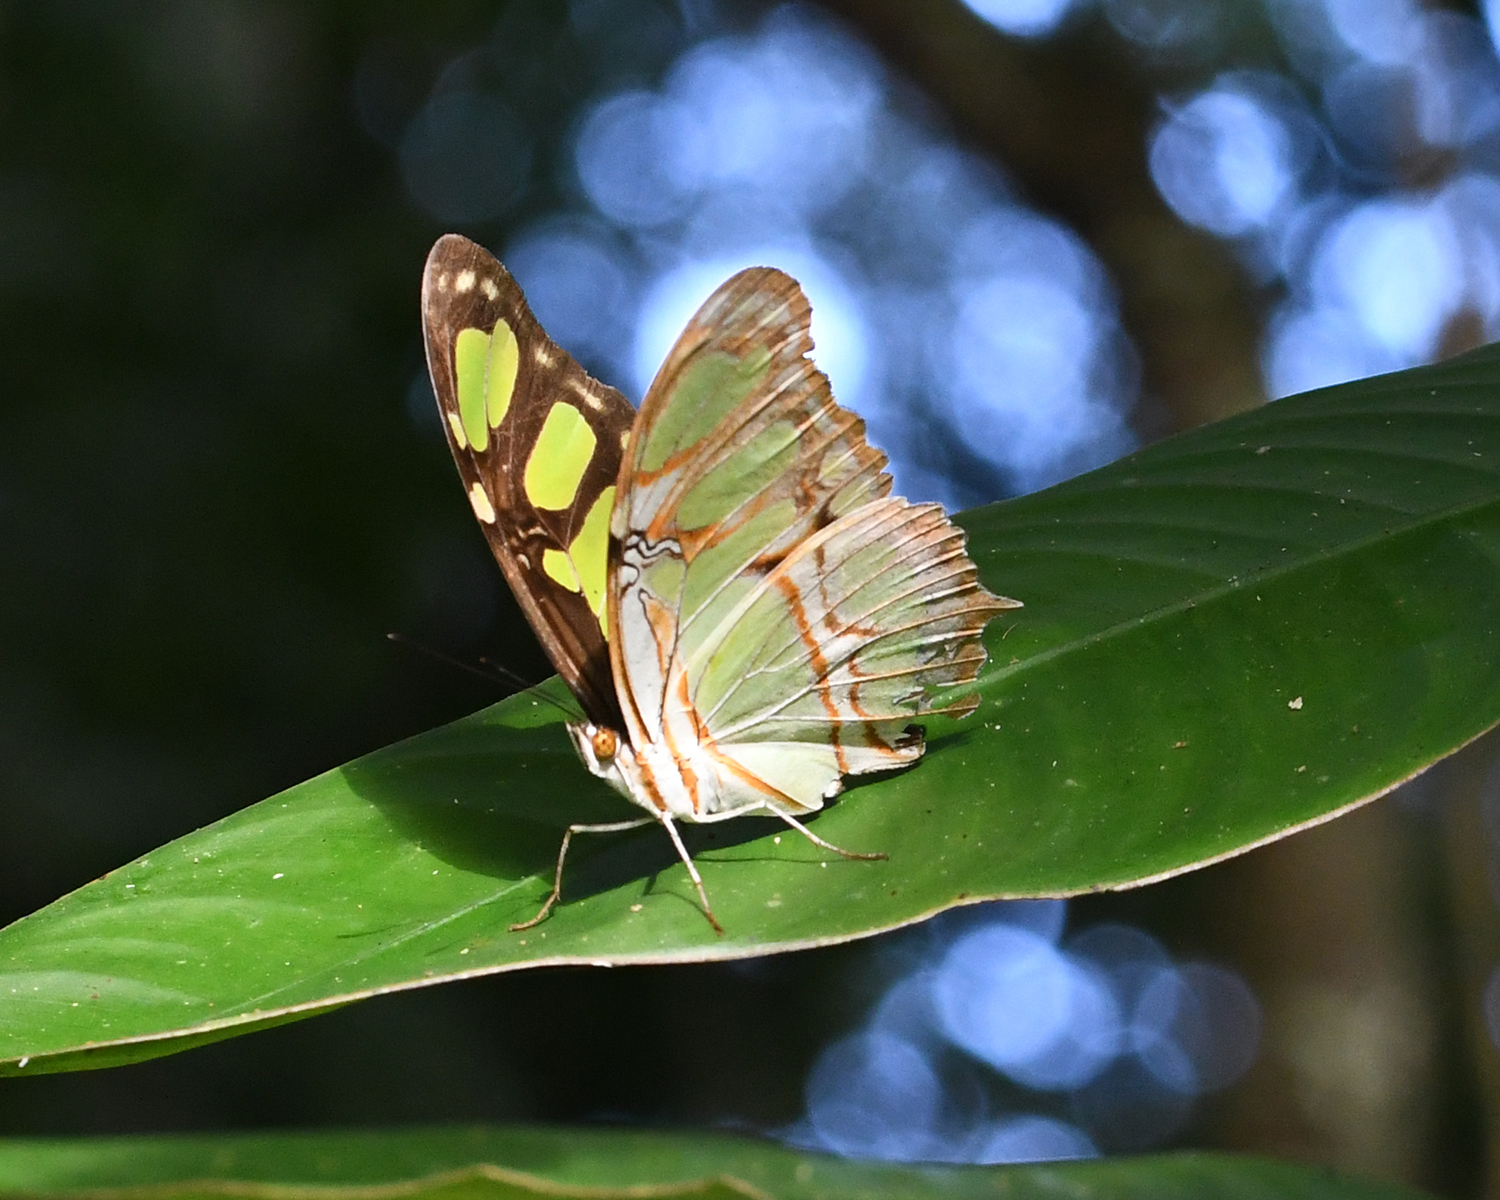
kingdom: Animalia
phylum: Arthropoda
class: Insecta
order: Lepidoptera
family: Nymphalidae
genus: Siproeta
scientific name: Siproeta stelenes
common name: Malachite
